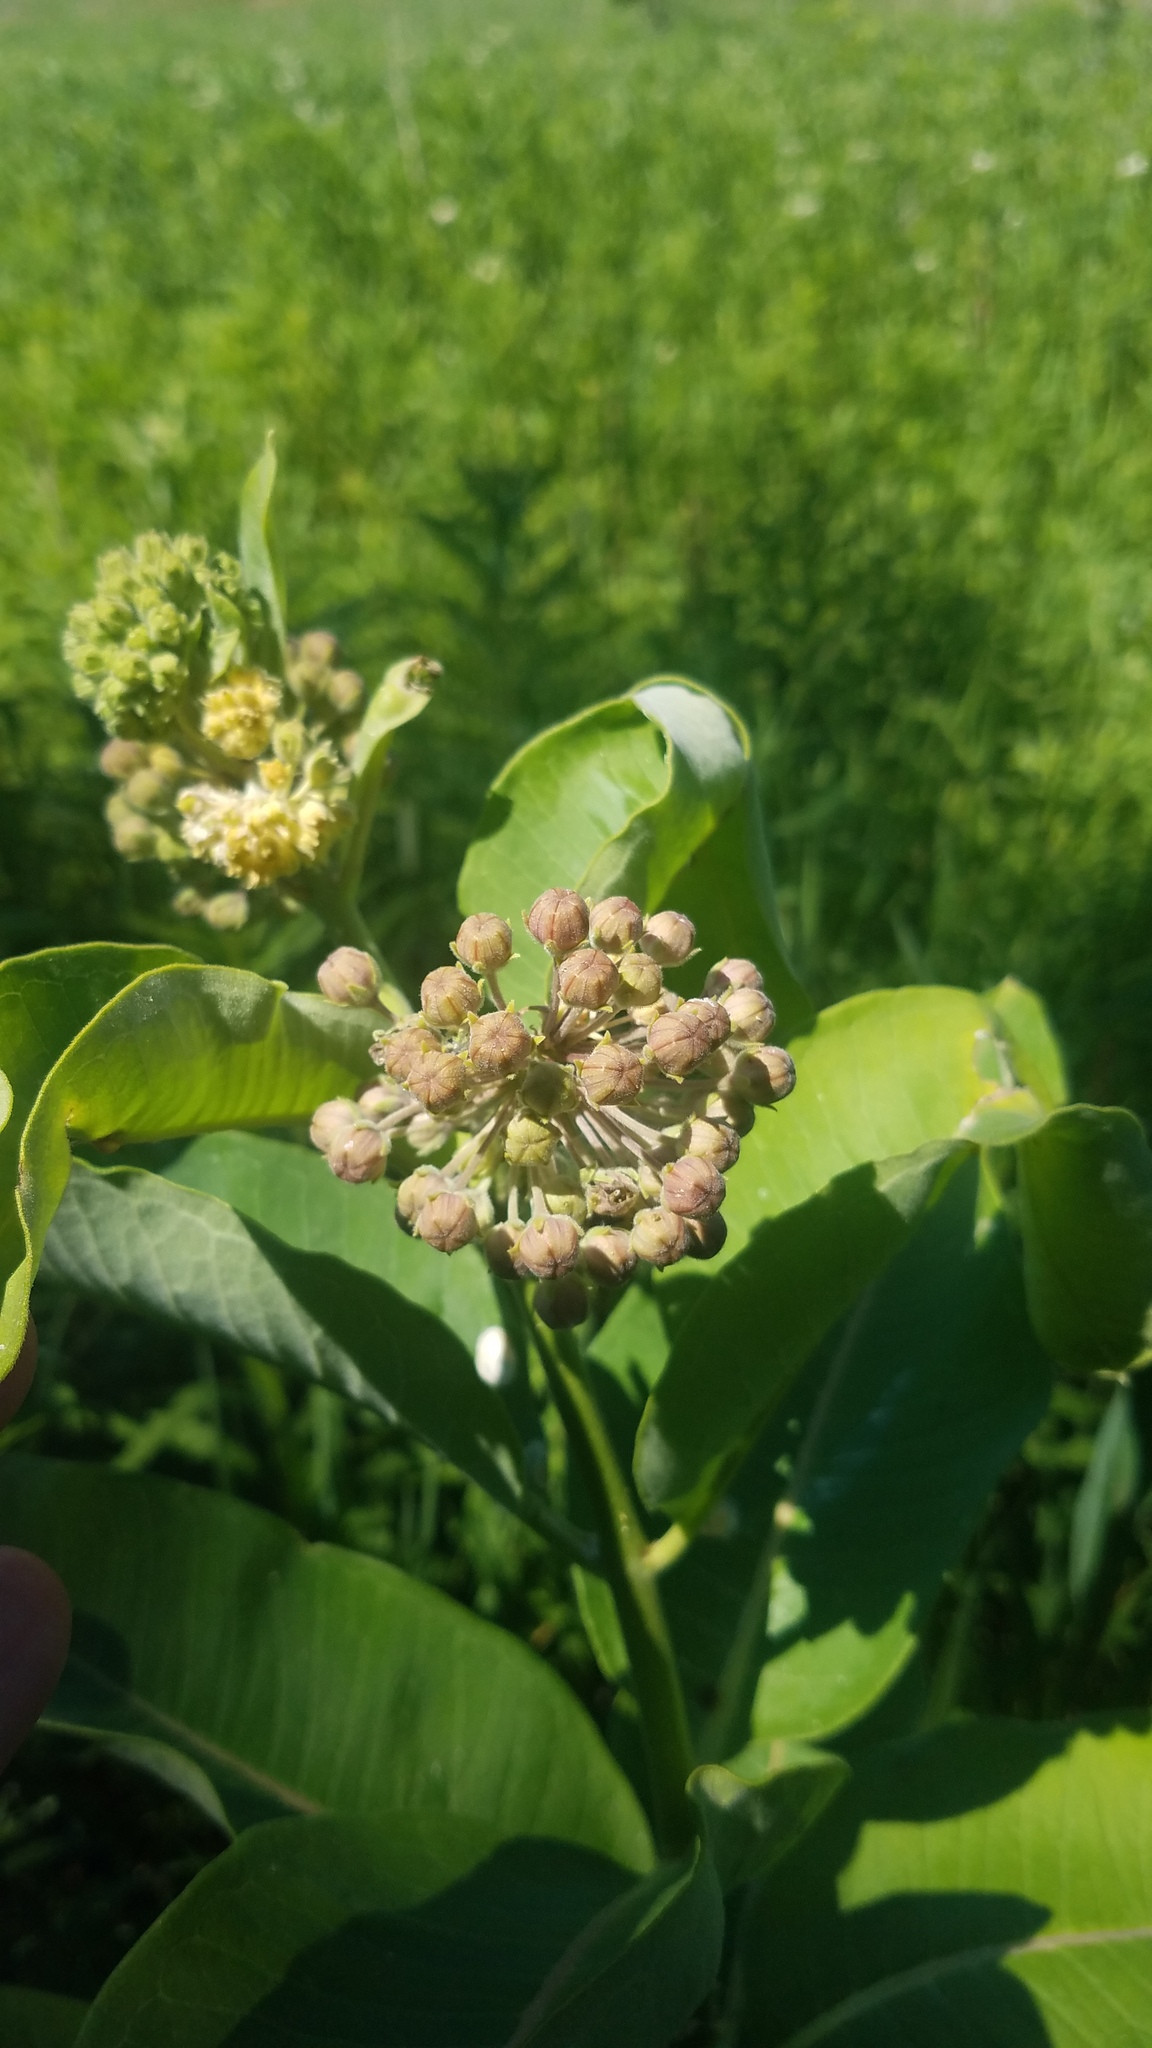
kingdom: Plantae
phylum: Tracheophyta
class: Magnoliopsida
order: Gentianales
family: Apocynaceae
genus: Asclepias
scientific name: Asclepias syriaca
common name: Common milkweed
